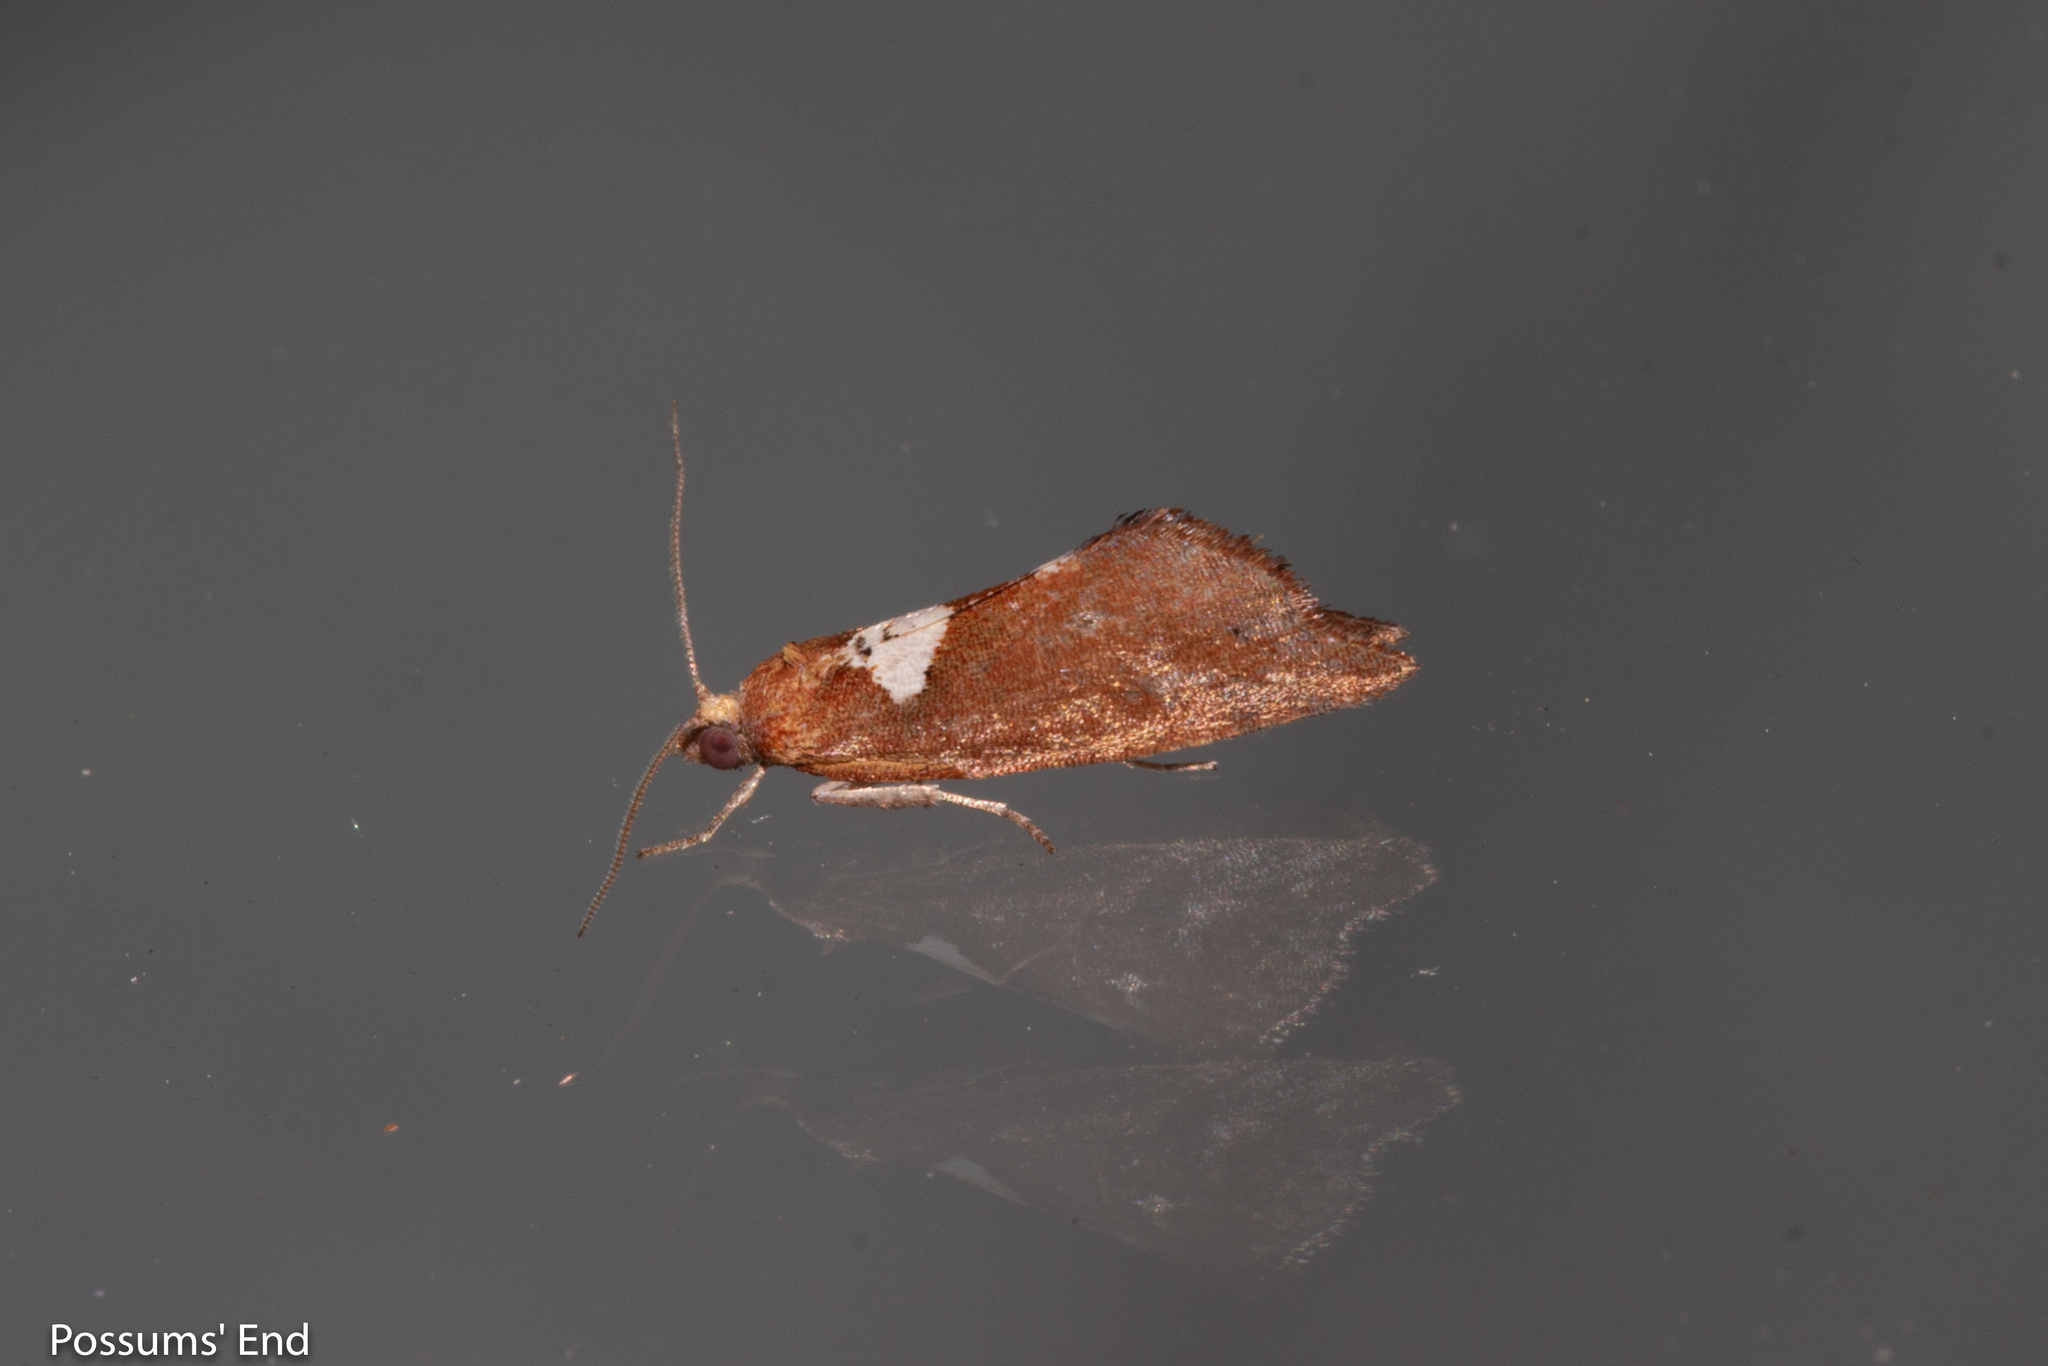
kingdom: Animalia
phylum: Arthropoda
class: Insecta
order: Lepidoptera
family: Tortricidae
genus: Pyrgotis
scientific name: Pyrgotis pyramidias
